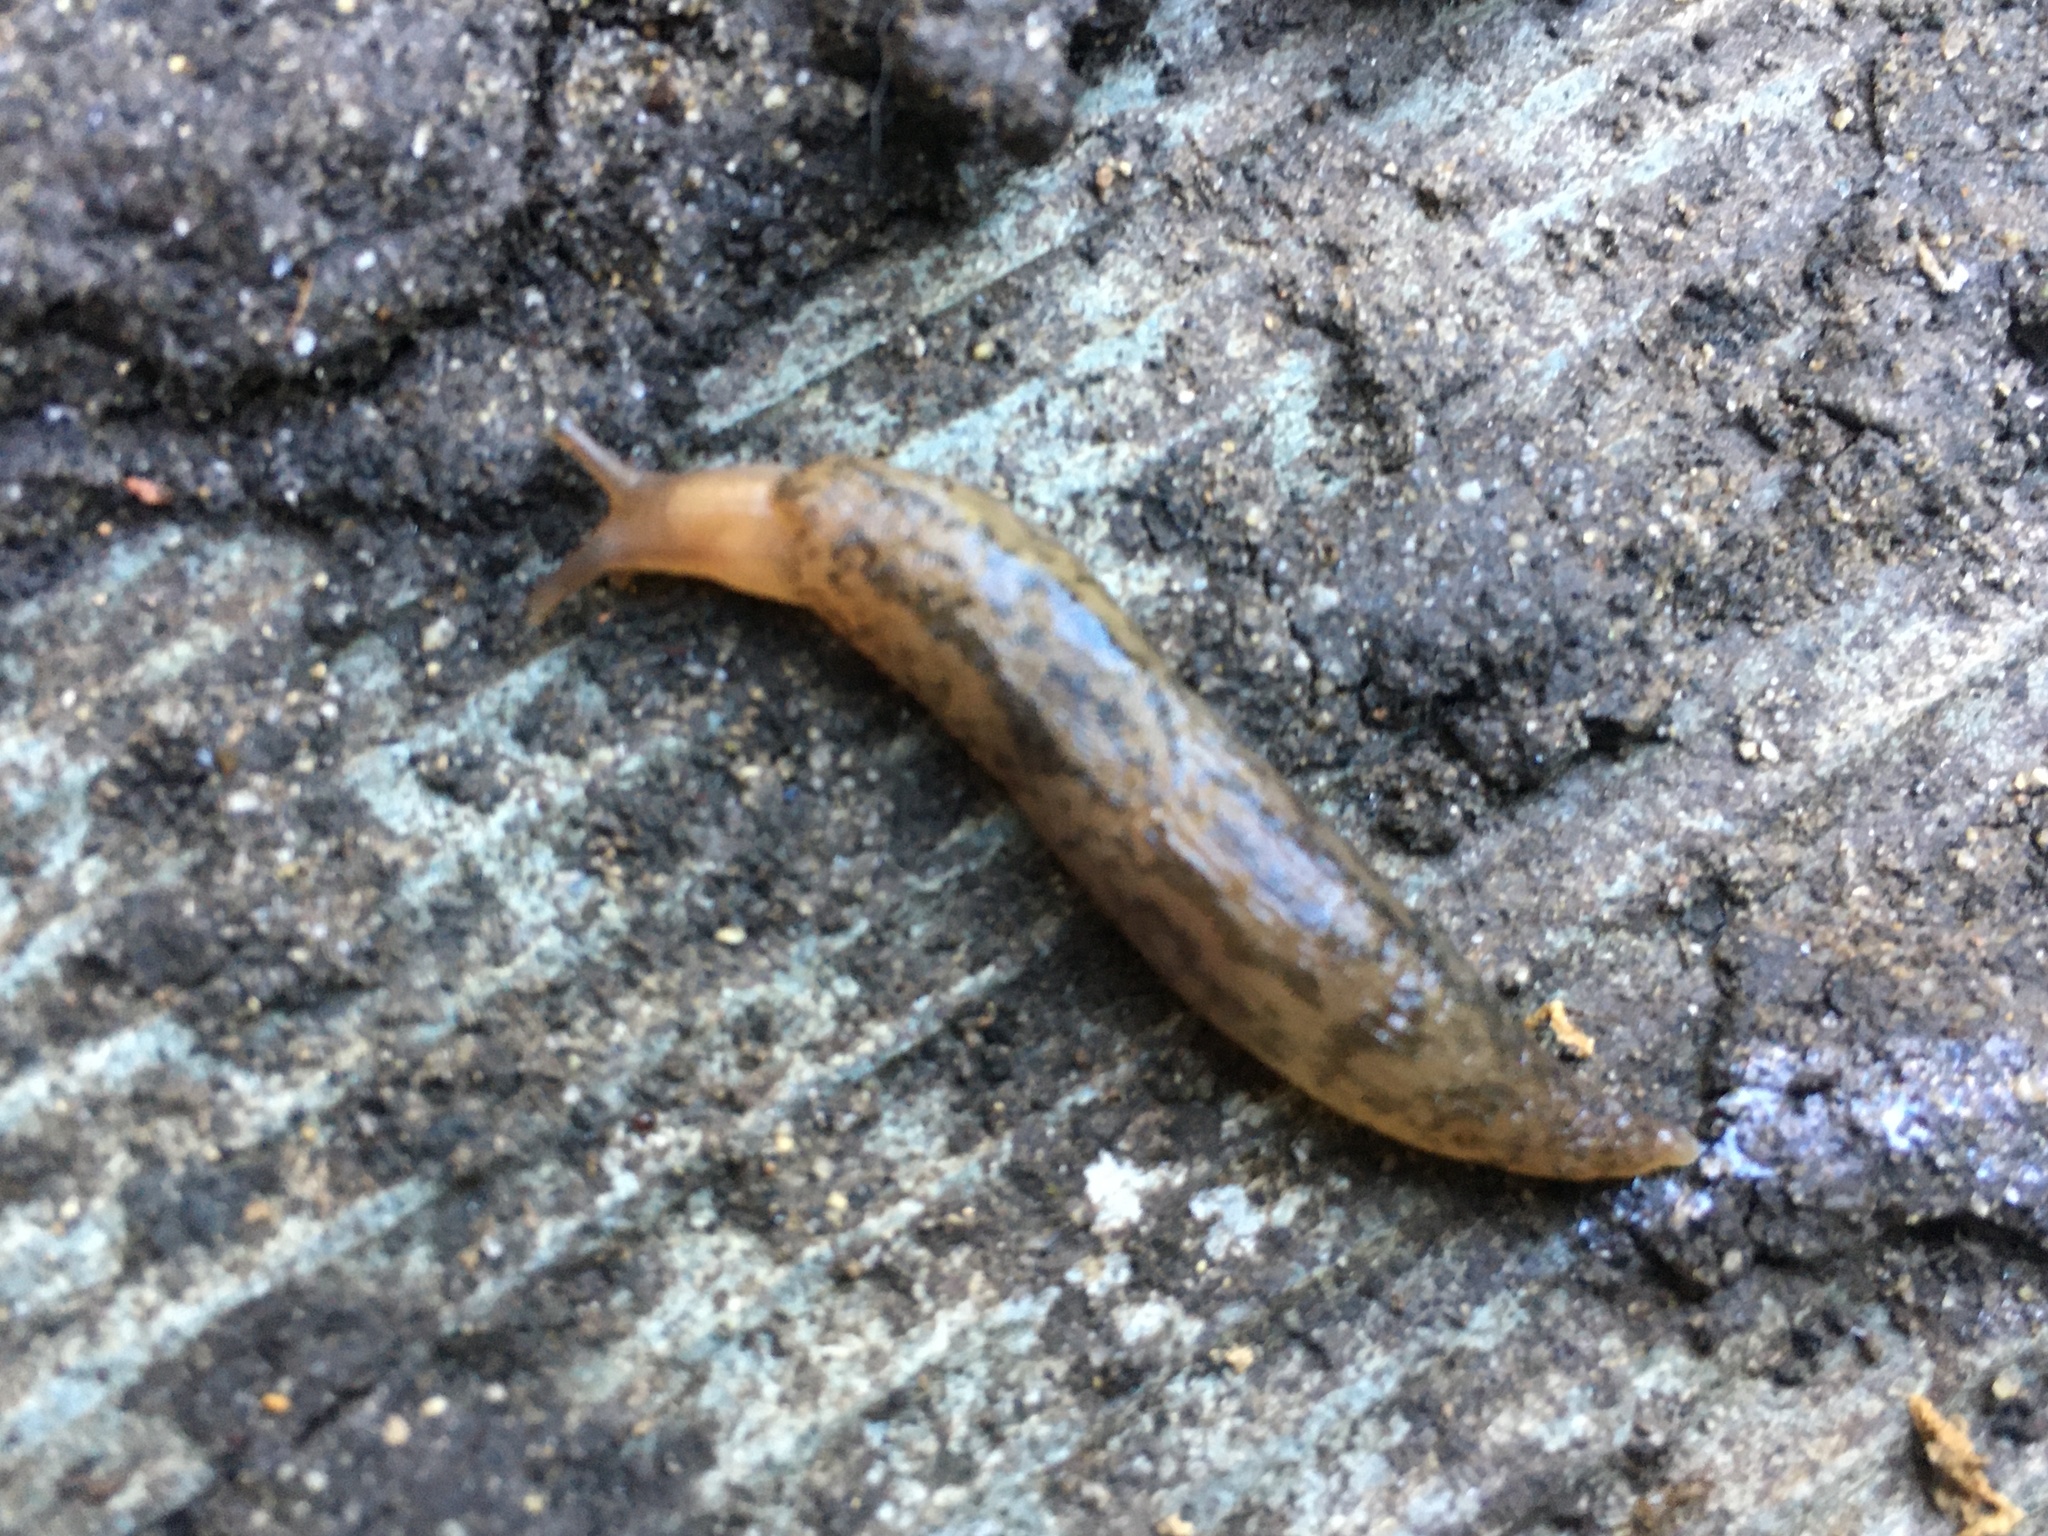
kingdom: Animalia
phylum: Mollusca
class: Gastropoda
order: Stylommatophora
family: Limacidae
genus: Ambigolimax
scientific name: Ambigolimax
